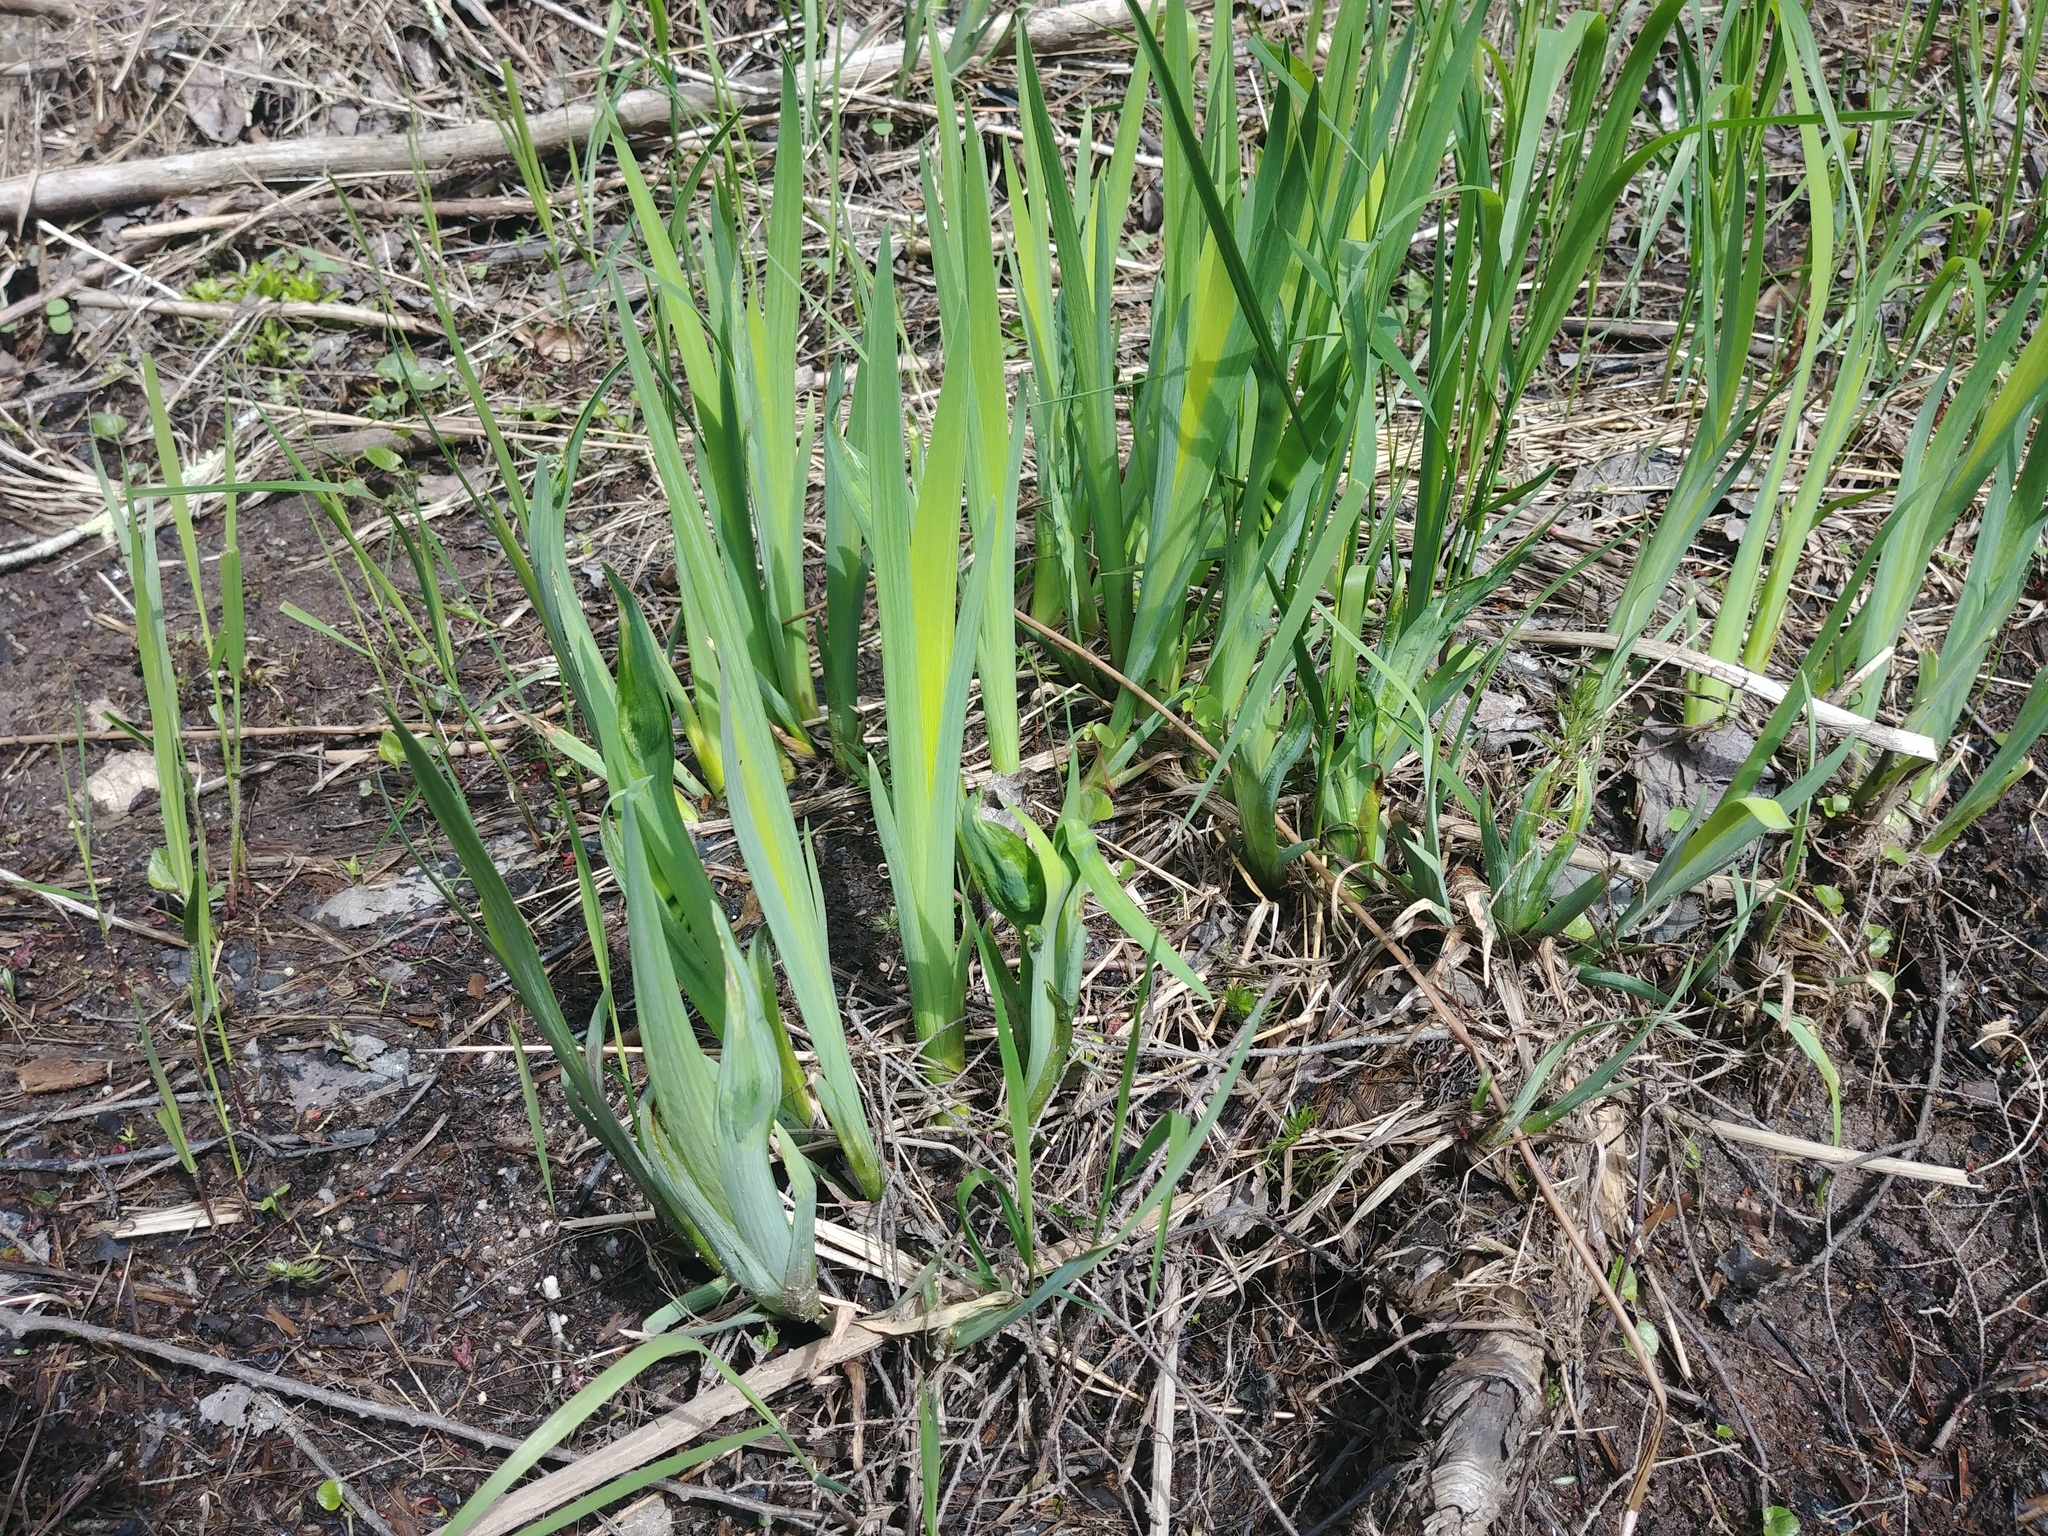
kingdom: Plantae
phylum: Tracheophyta
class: Liliopsida
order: Asparagales
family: Iridaceae
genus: Iris
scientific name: Iris versicolor
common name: Purple iris
